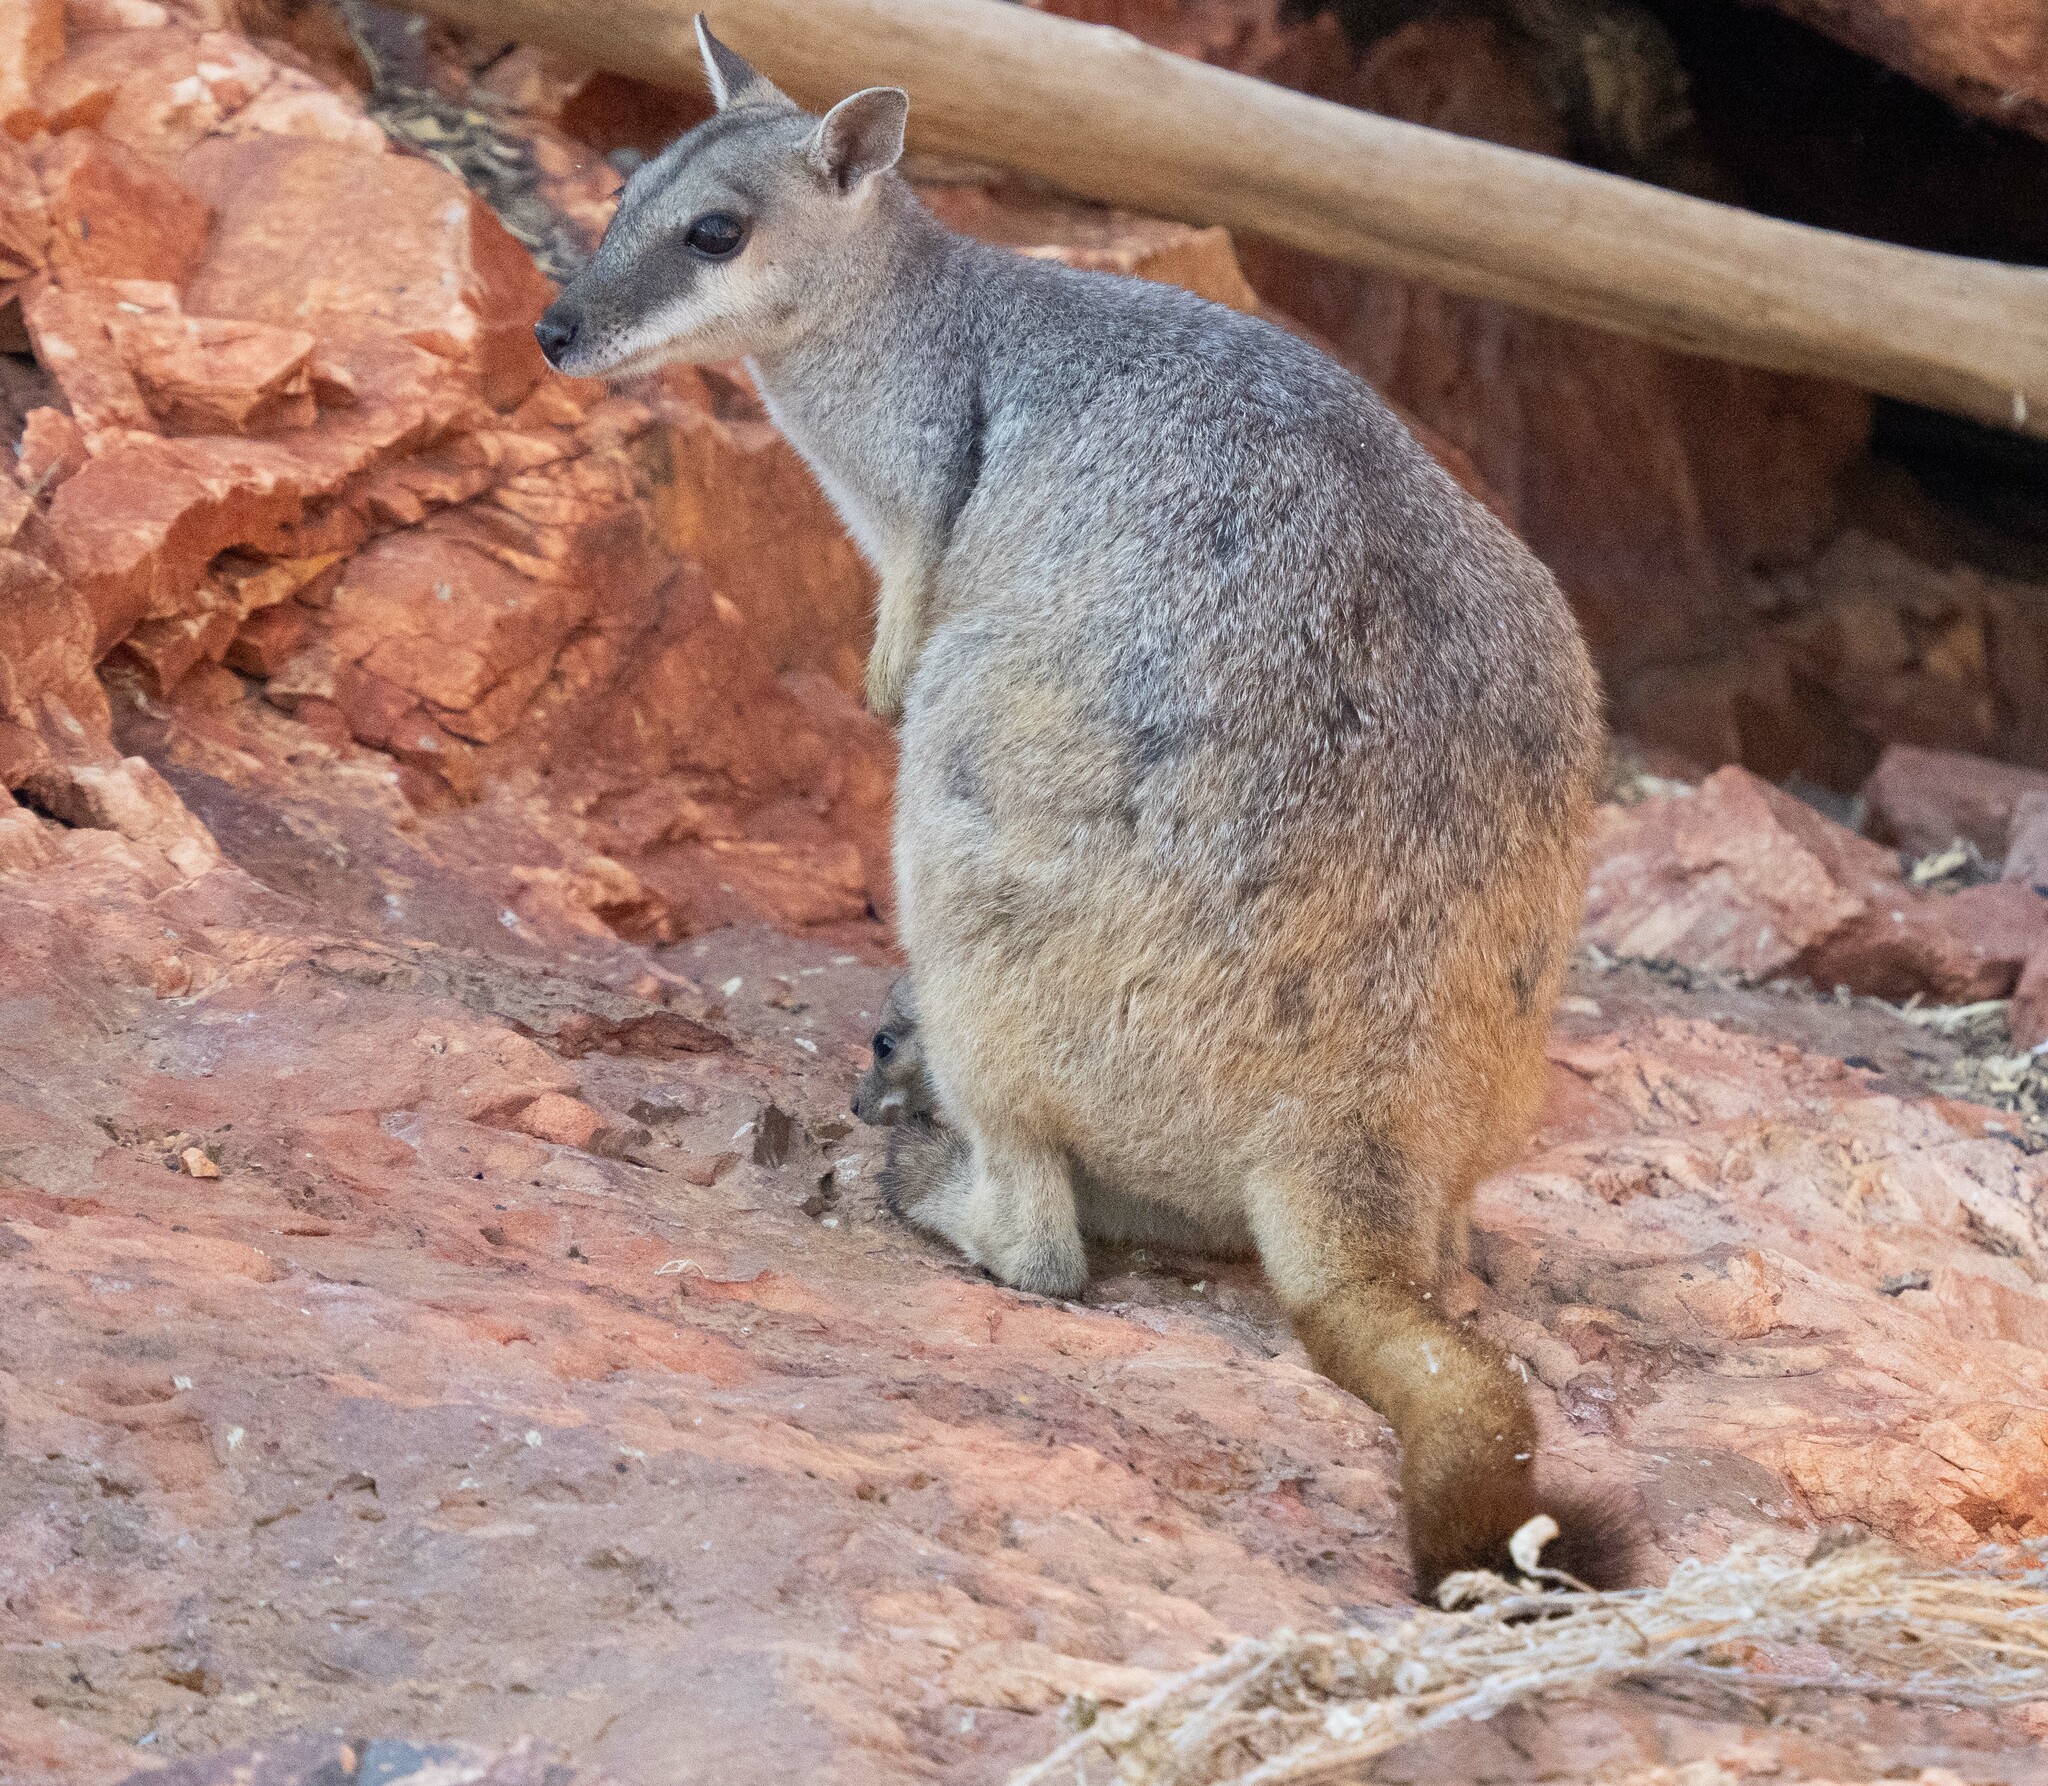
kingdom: Animalia
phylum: Chordata
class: Mammalia
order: Diprotodontia
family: Macropodidae
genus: Petrogale
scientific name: Petrogale brachyotis
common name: Short-eared rock-wallaby
